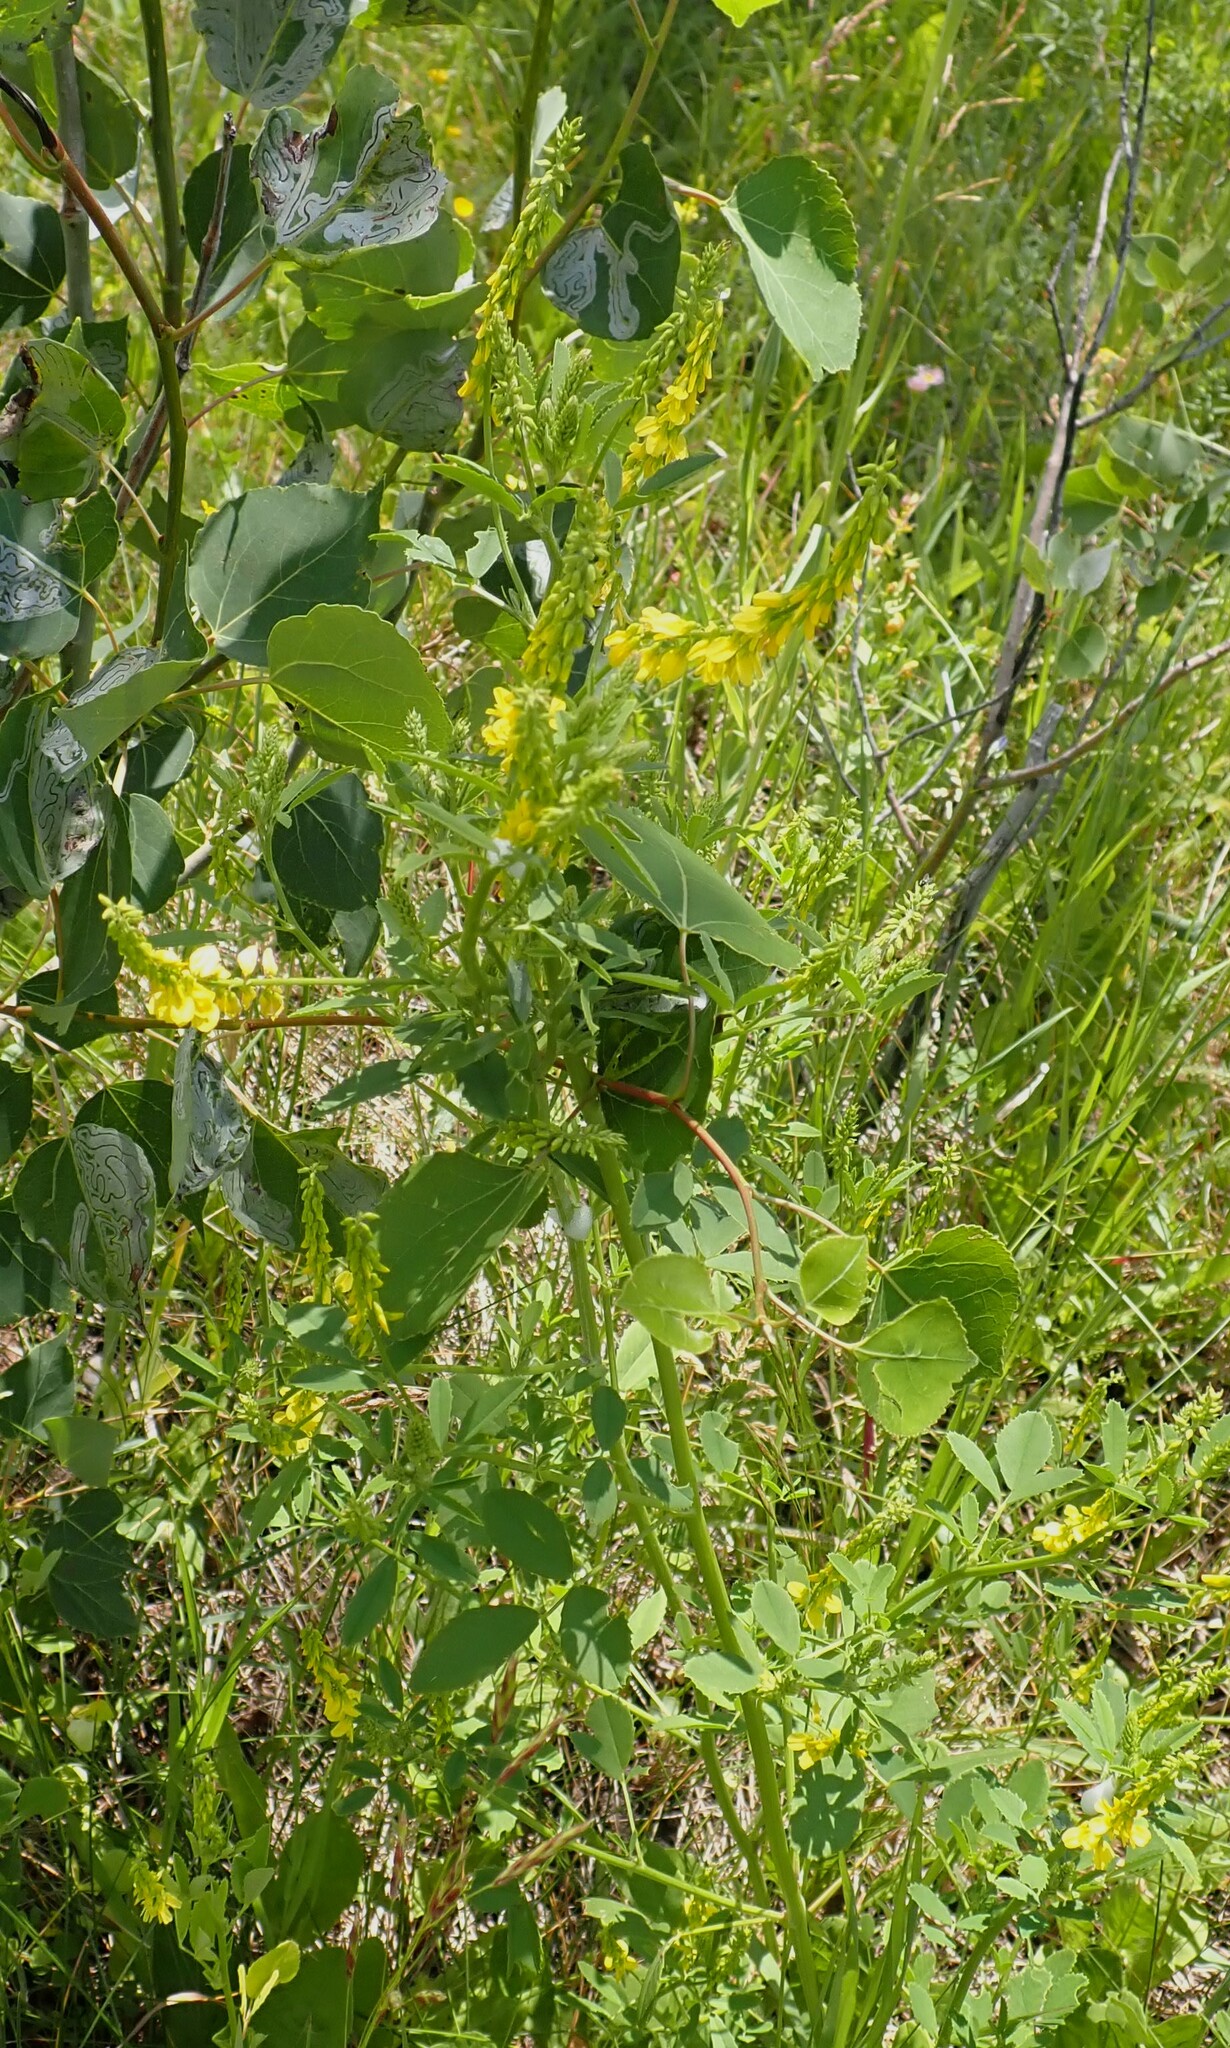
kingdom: Plantae
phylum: Tracheophyta
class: Magnoliopsida
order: Fabales
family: Fabaceae
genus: Melilotus
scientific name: Melilotus officinalis
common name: Sweetclover
